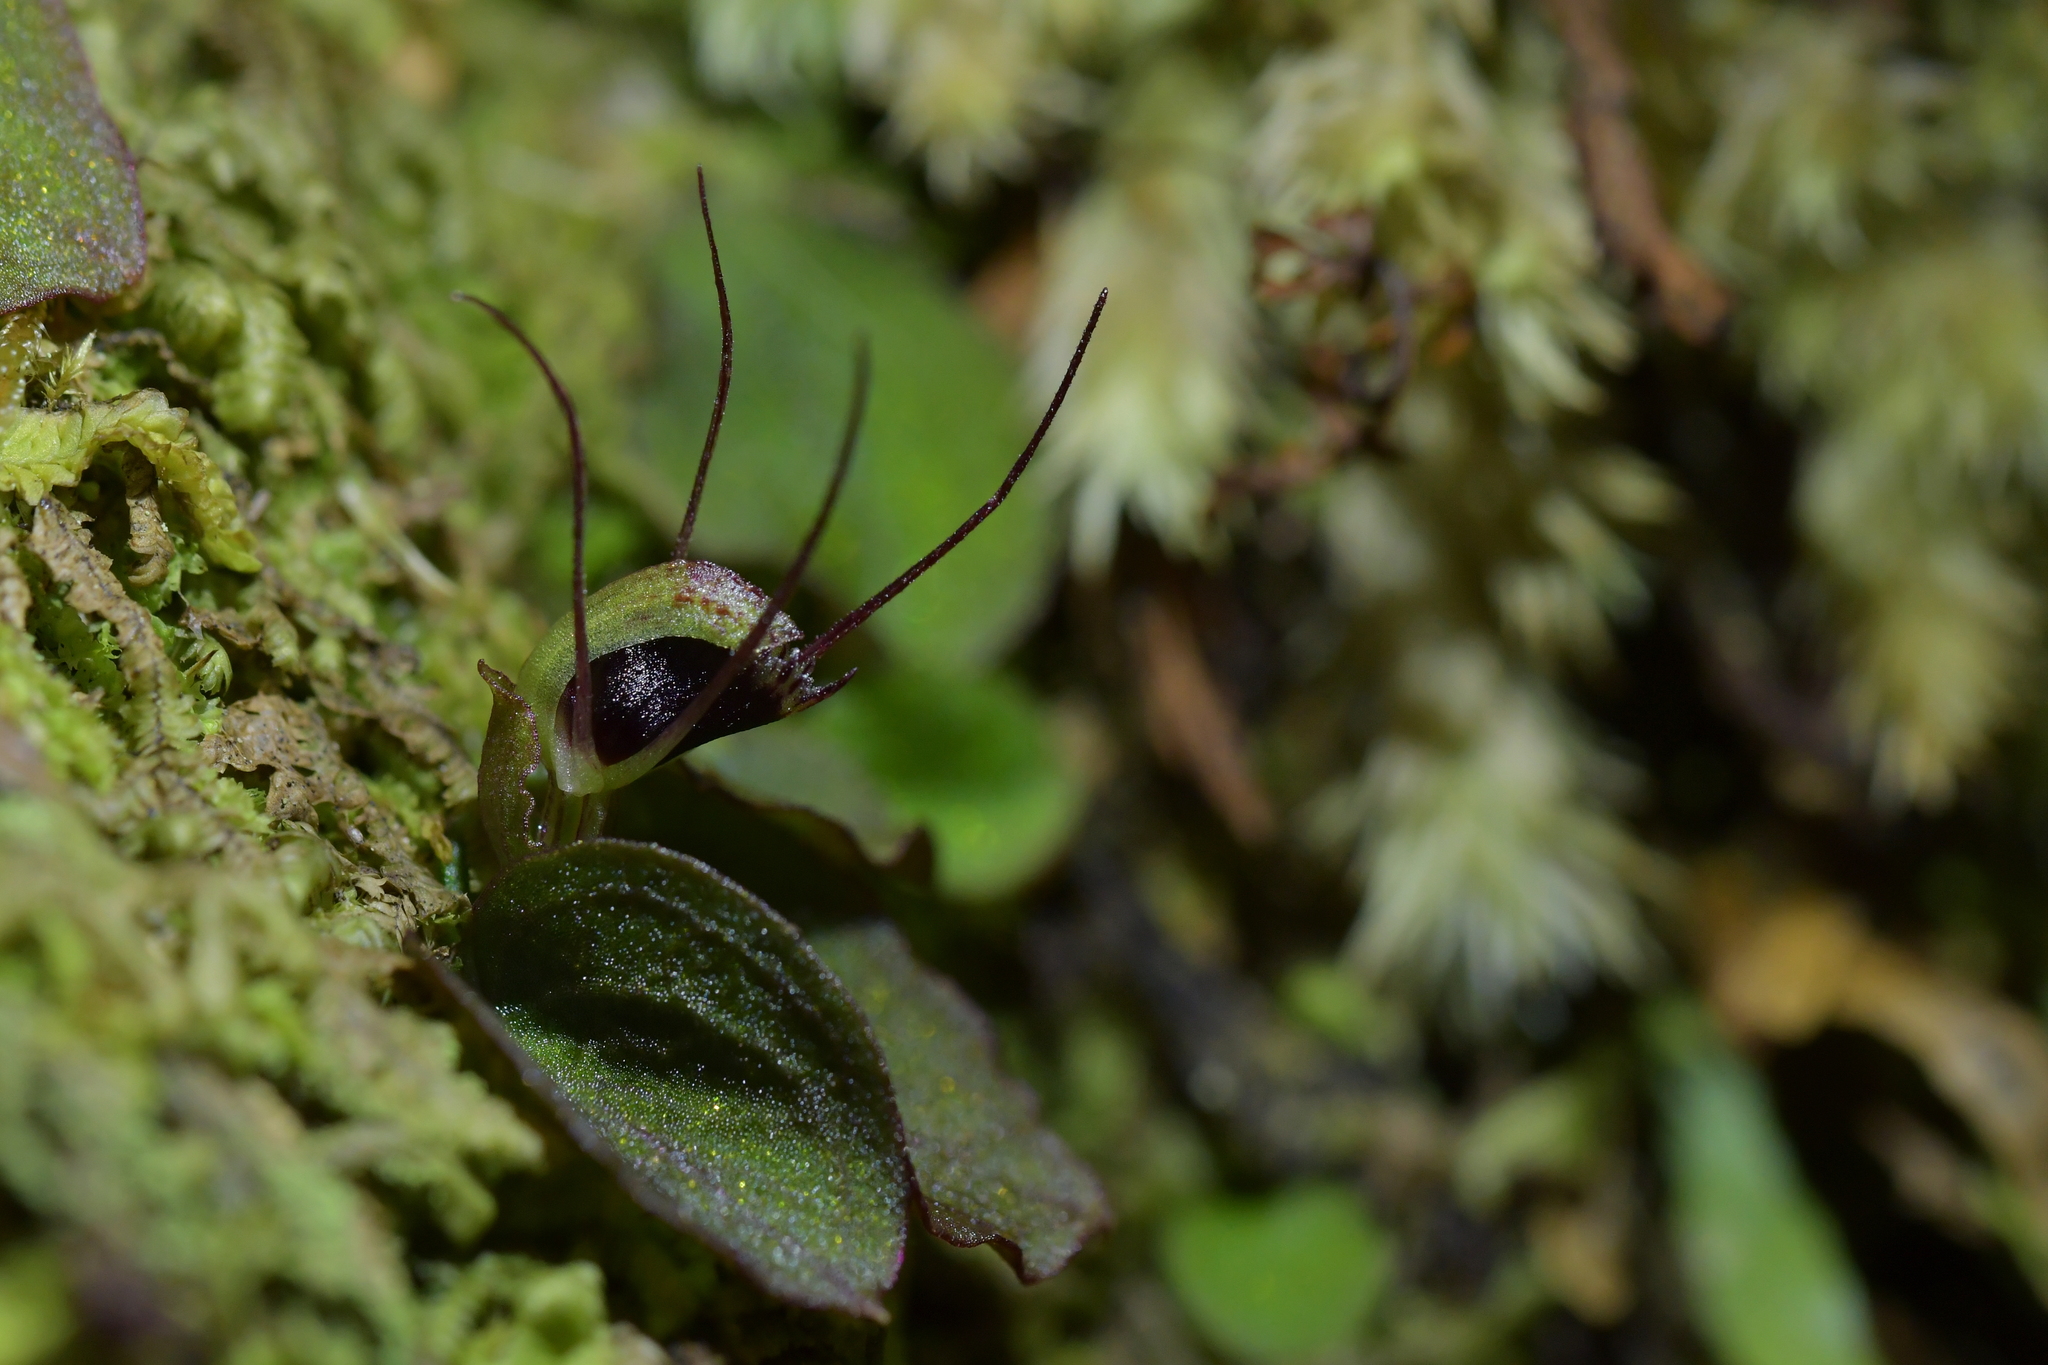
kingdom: Plantae
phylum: Tracheophyta
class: Liliopsida
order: Asparagales
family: Orchidaceae
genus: Corybas
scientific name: Corybas oblongus
